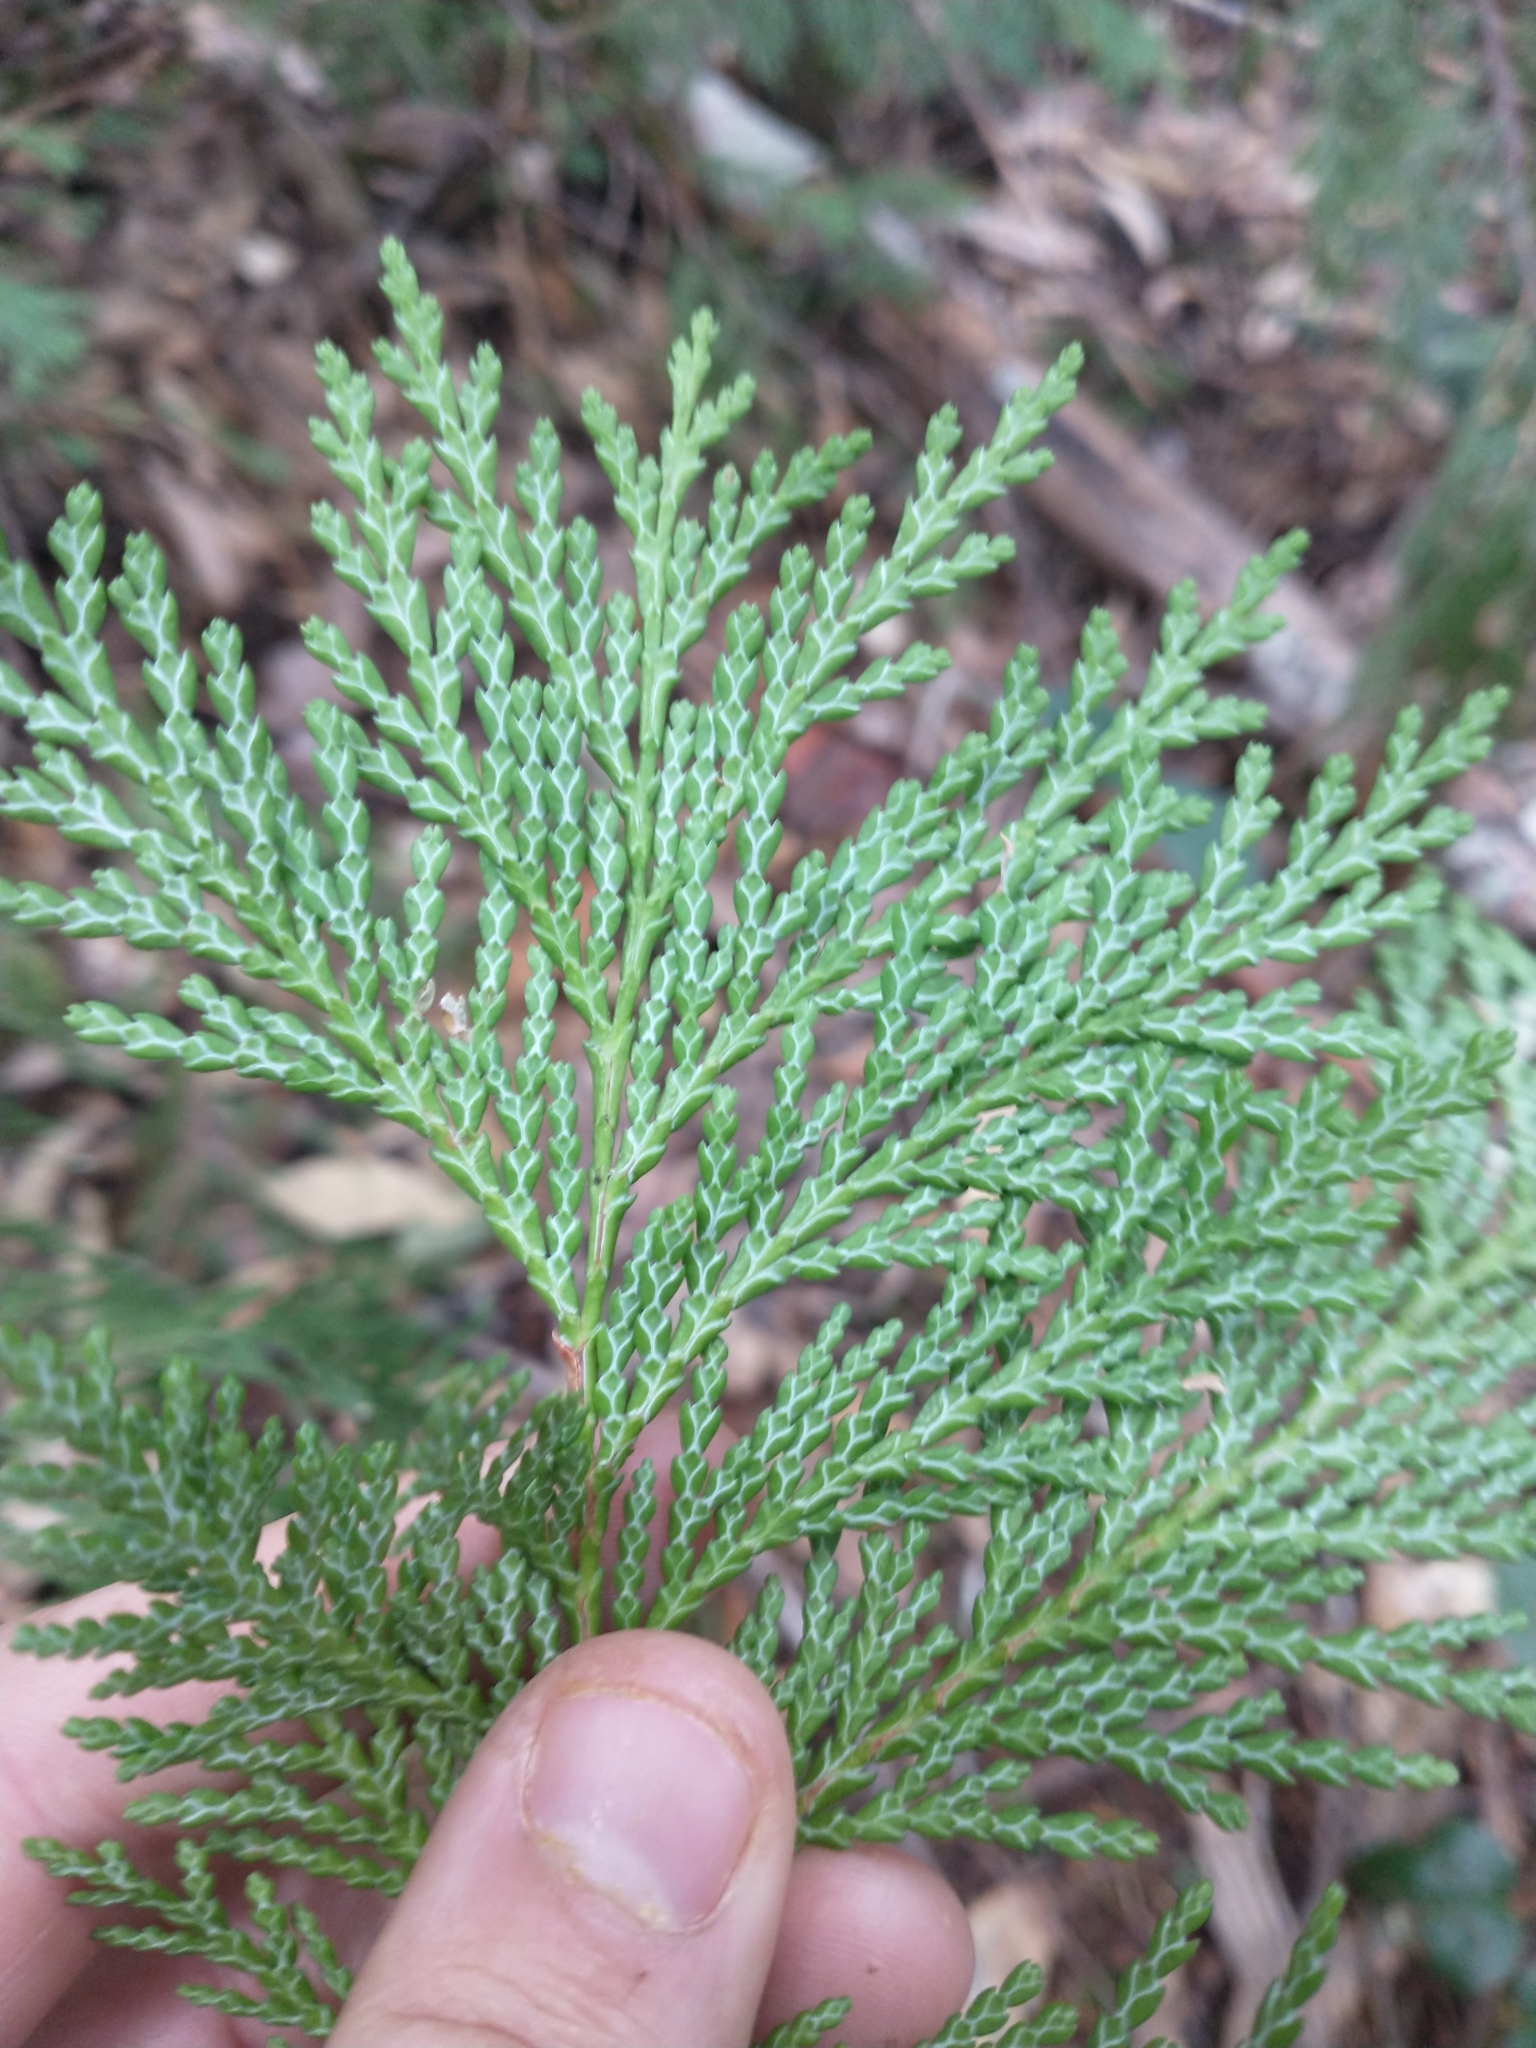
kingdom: Plantae
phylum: Tracheophyta
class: Pinopsida
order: Pinales
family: Cupressaceae
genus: Chamaecyparis
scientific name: Chamaecyparis lawsoniana
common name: Lawson's cypress
